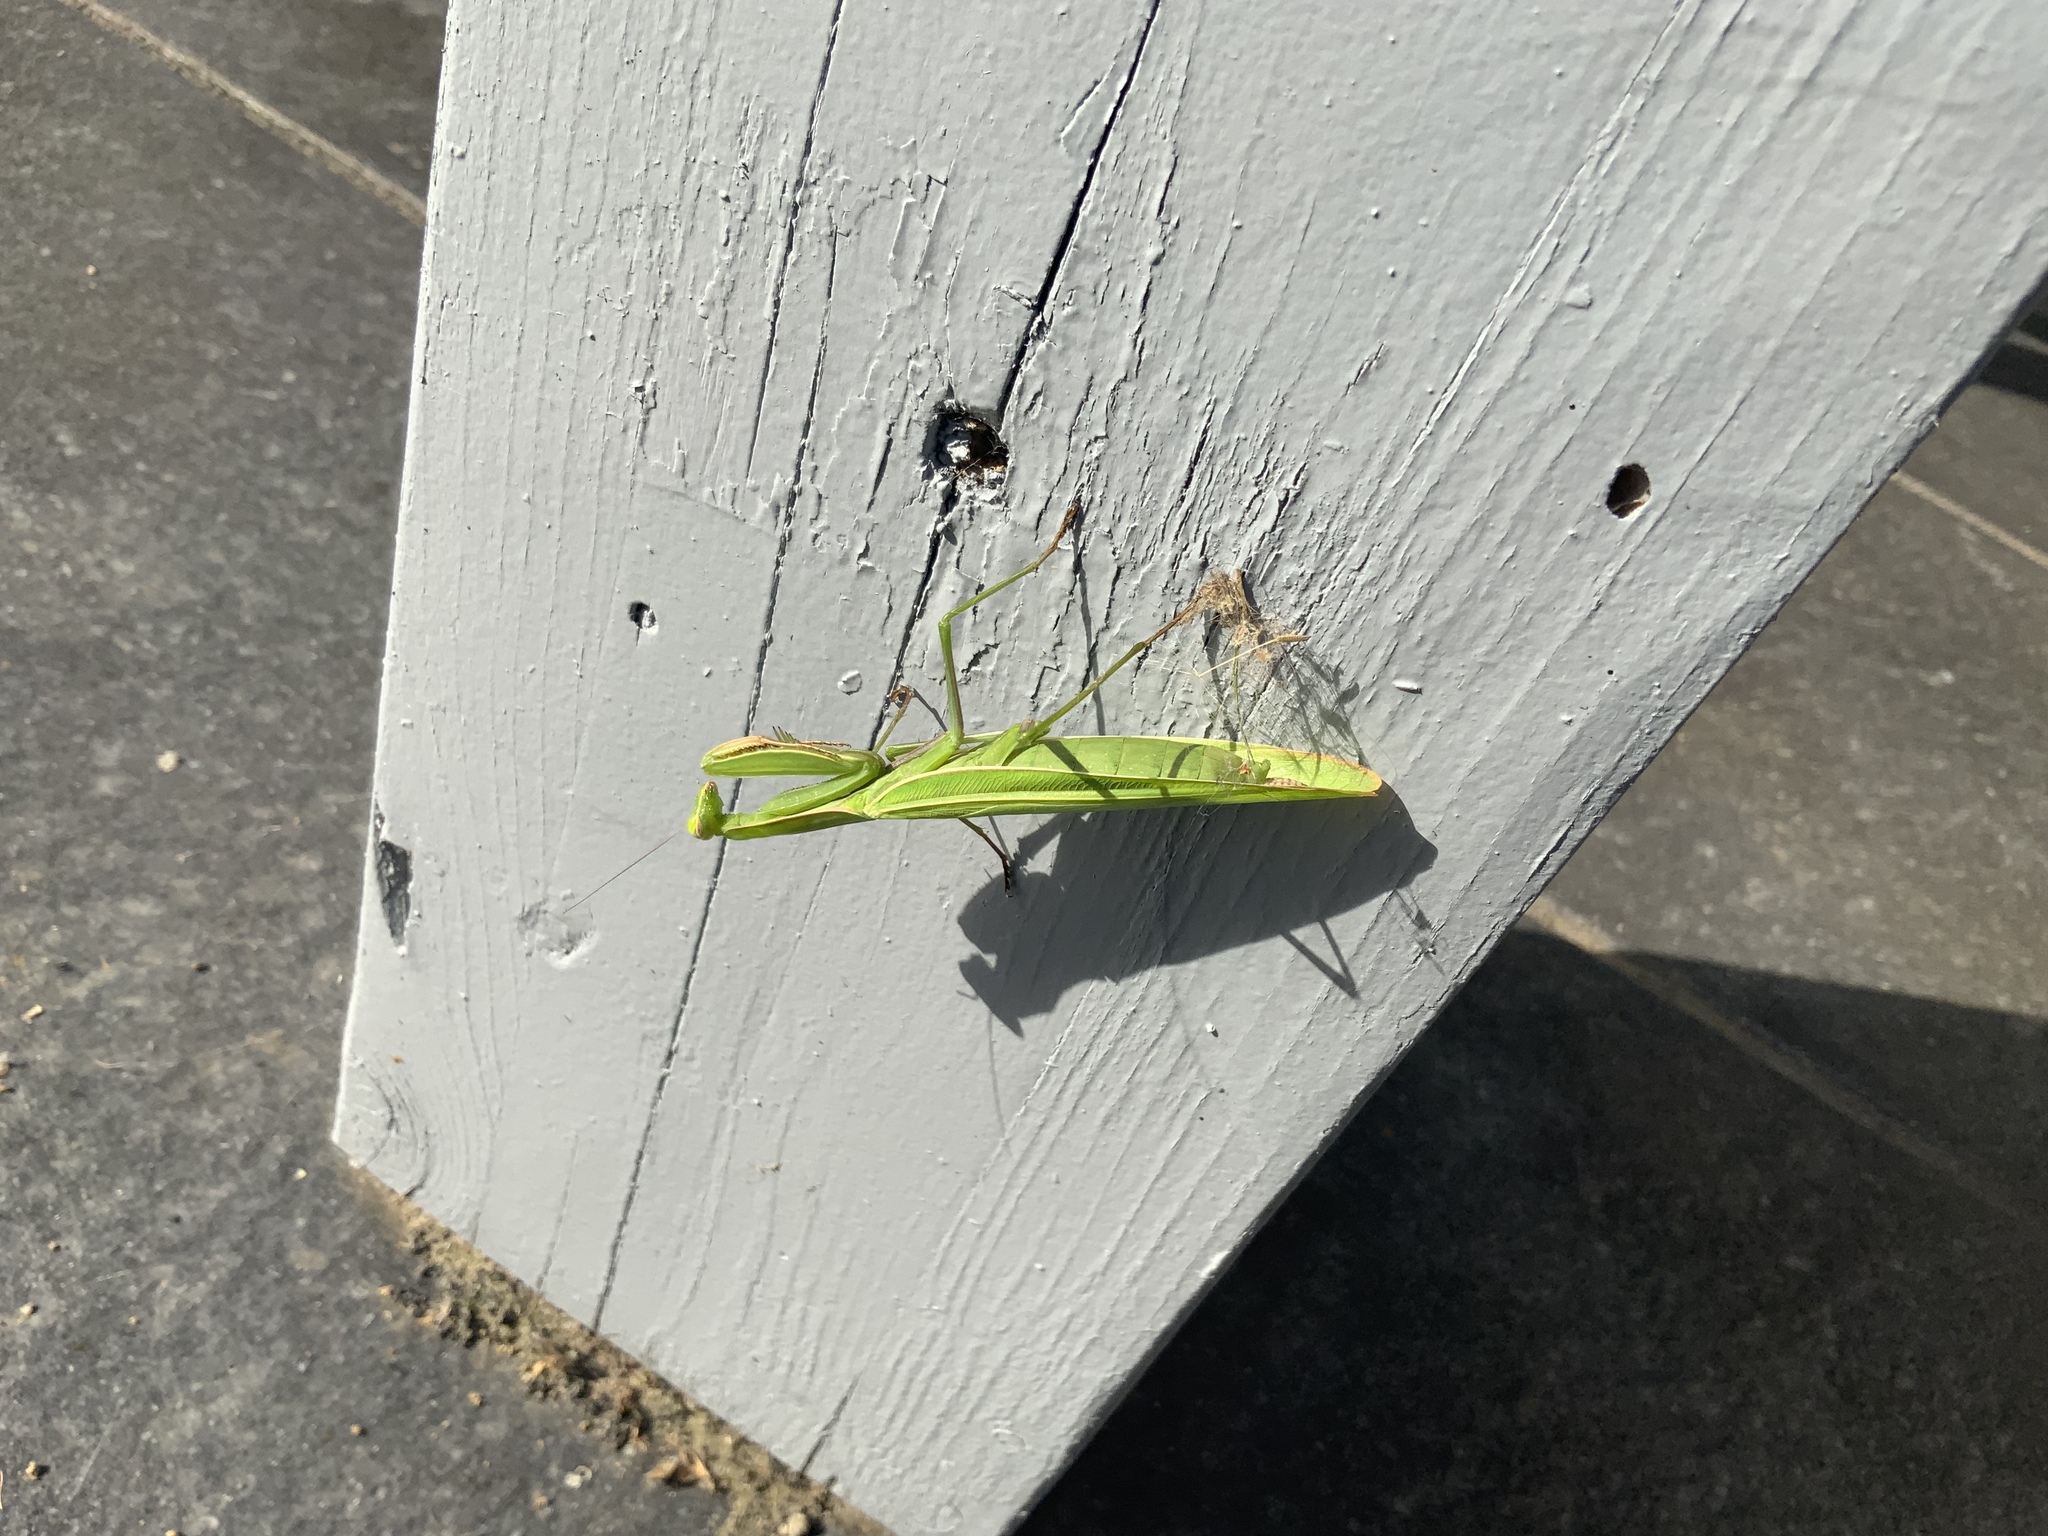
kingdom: Animalia
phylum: Arthropoda
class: Insecta
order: Mantodea
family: Mantidae
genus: Mantis
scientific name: Mantis religiosa
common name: Praying mantis
